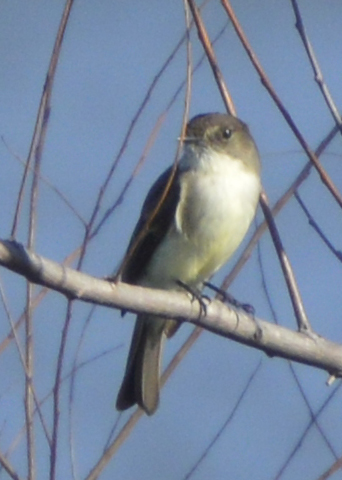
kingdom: Animalia
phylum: Chordata
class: Aves
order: Passeriformes
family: Tyrannidae
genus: Sayornis
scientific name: Sayornis phoebe
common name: Eastern phoebe
